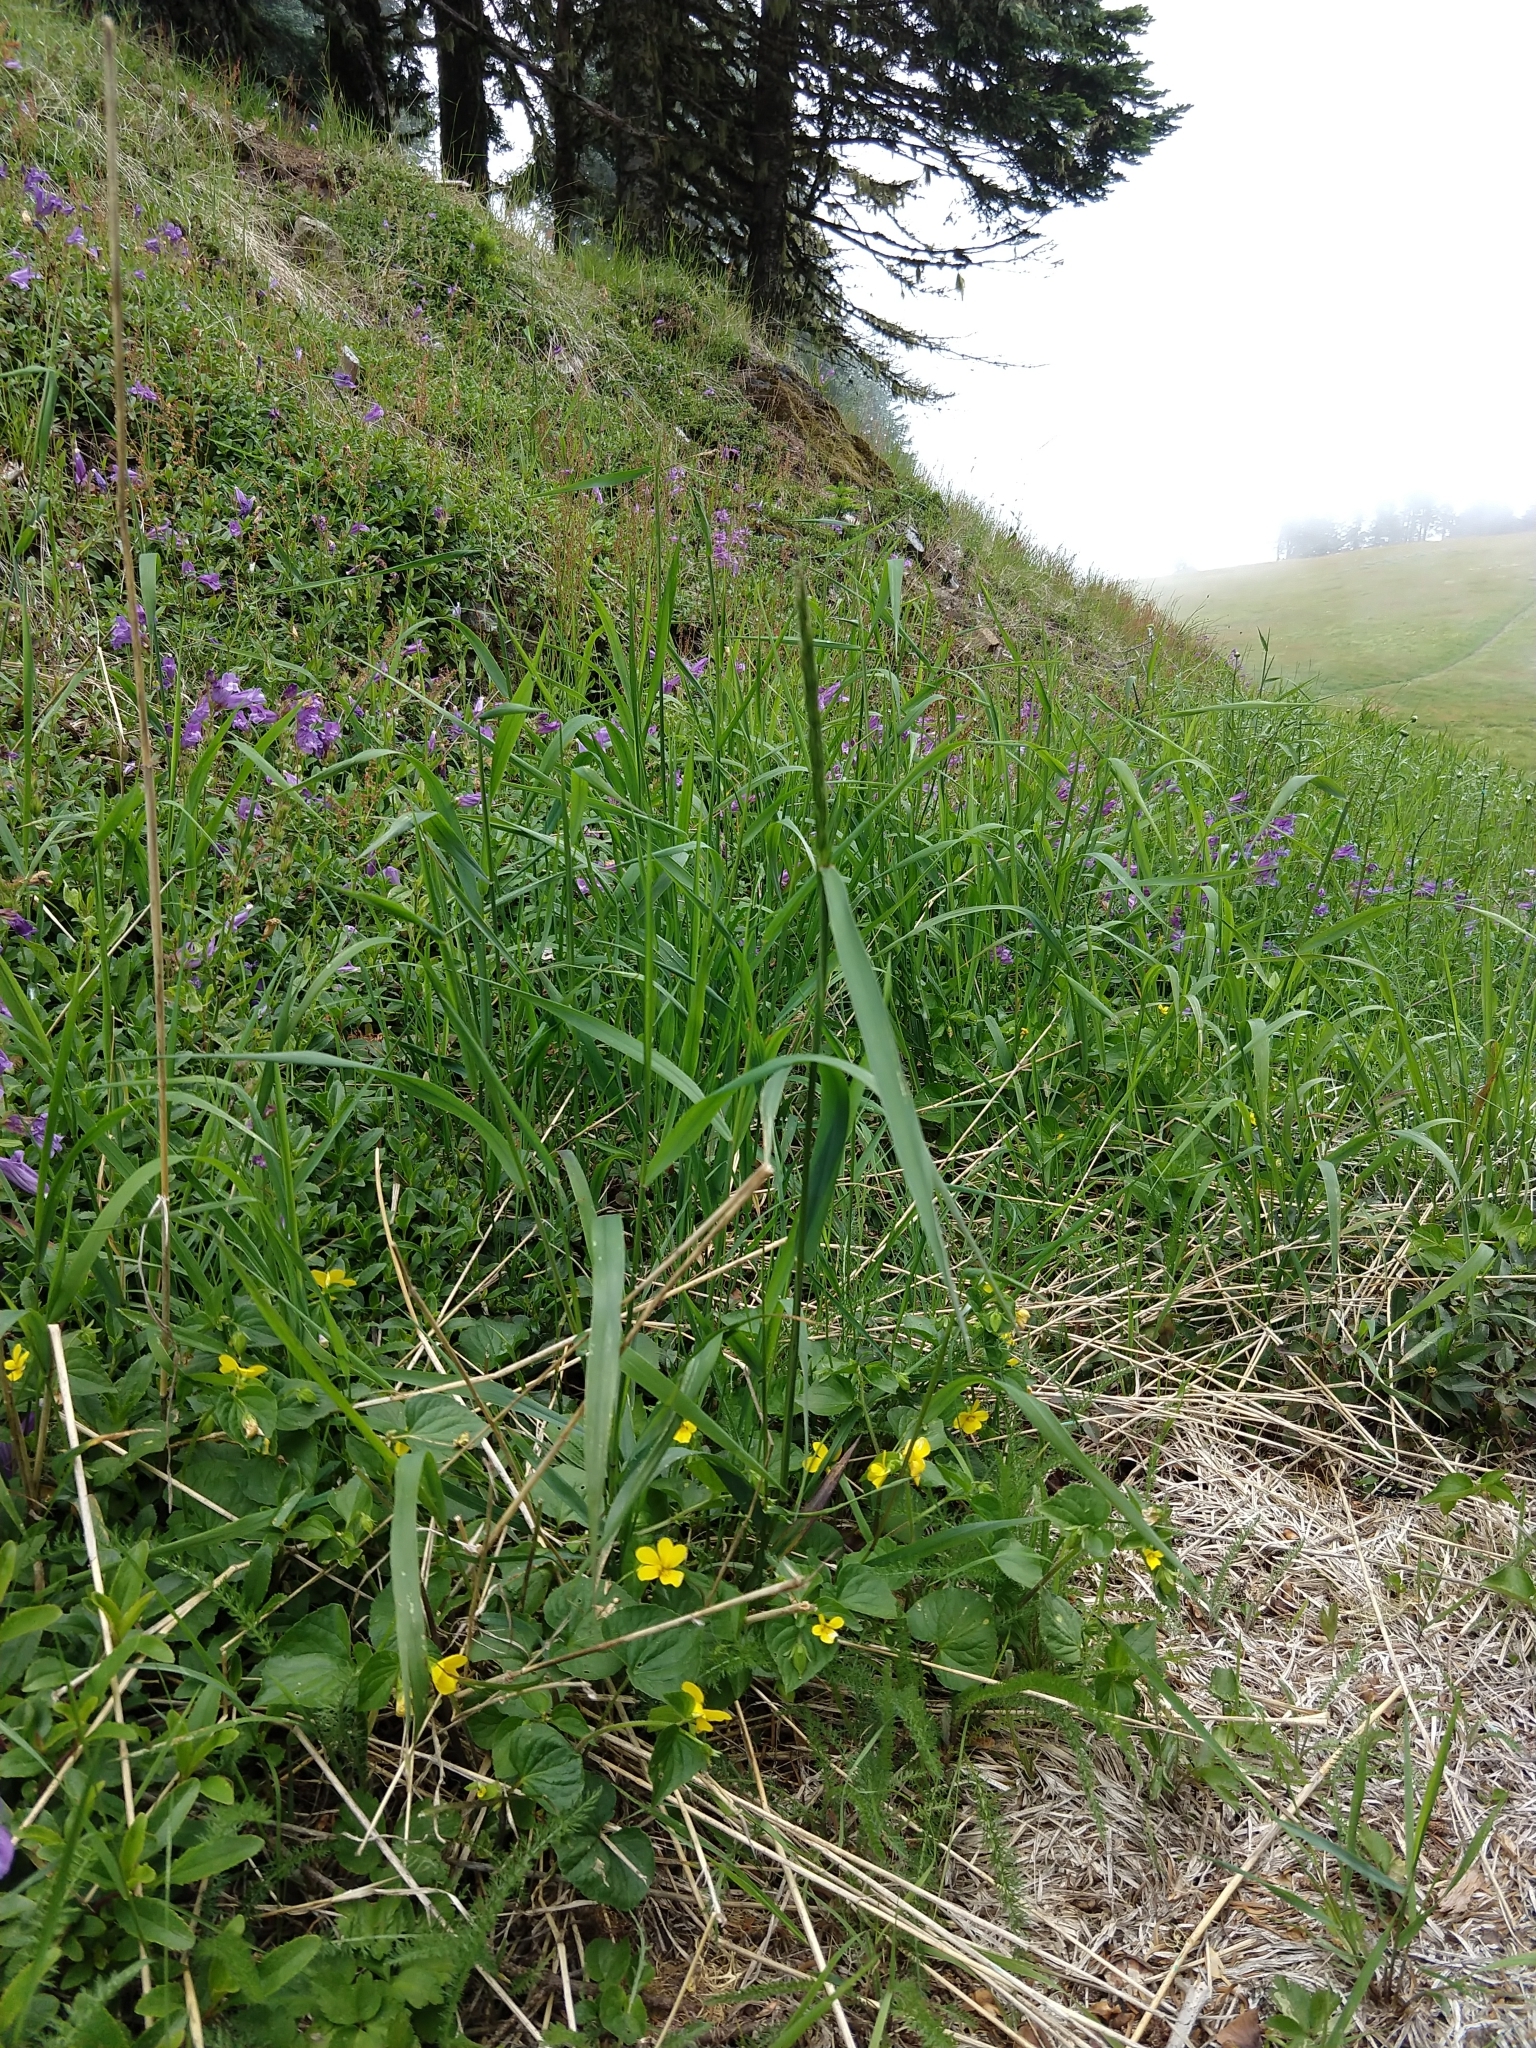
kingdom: Plantae
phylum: Tracheophyta
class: Magnoliopsida
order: Malpighiales
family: Violaceae
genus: Viola
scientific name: Viola glabella
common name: Stream violet
